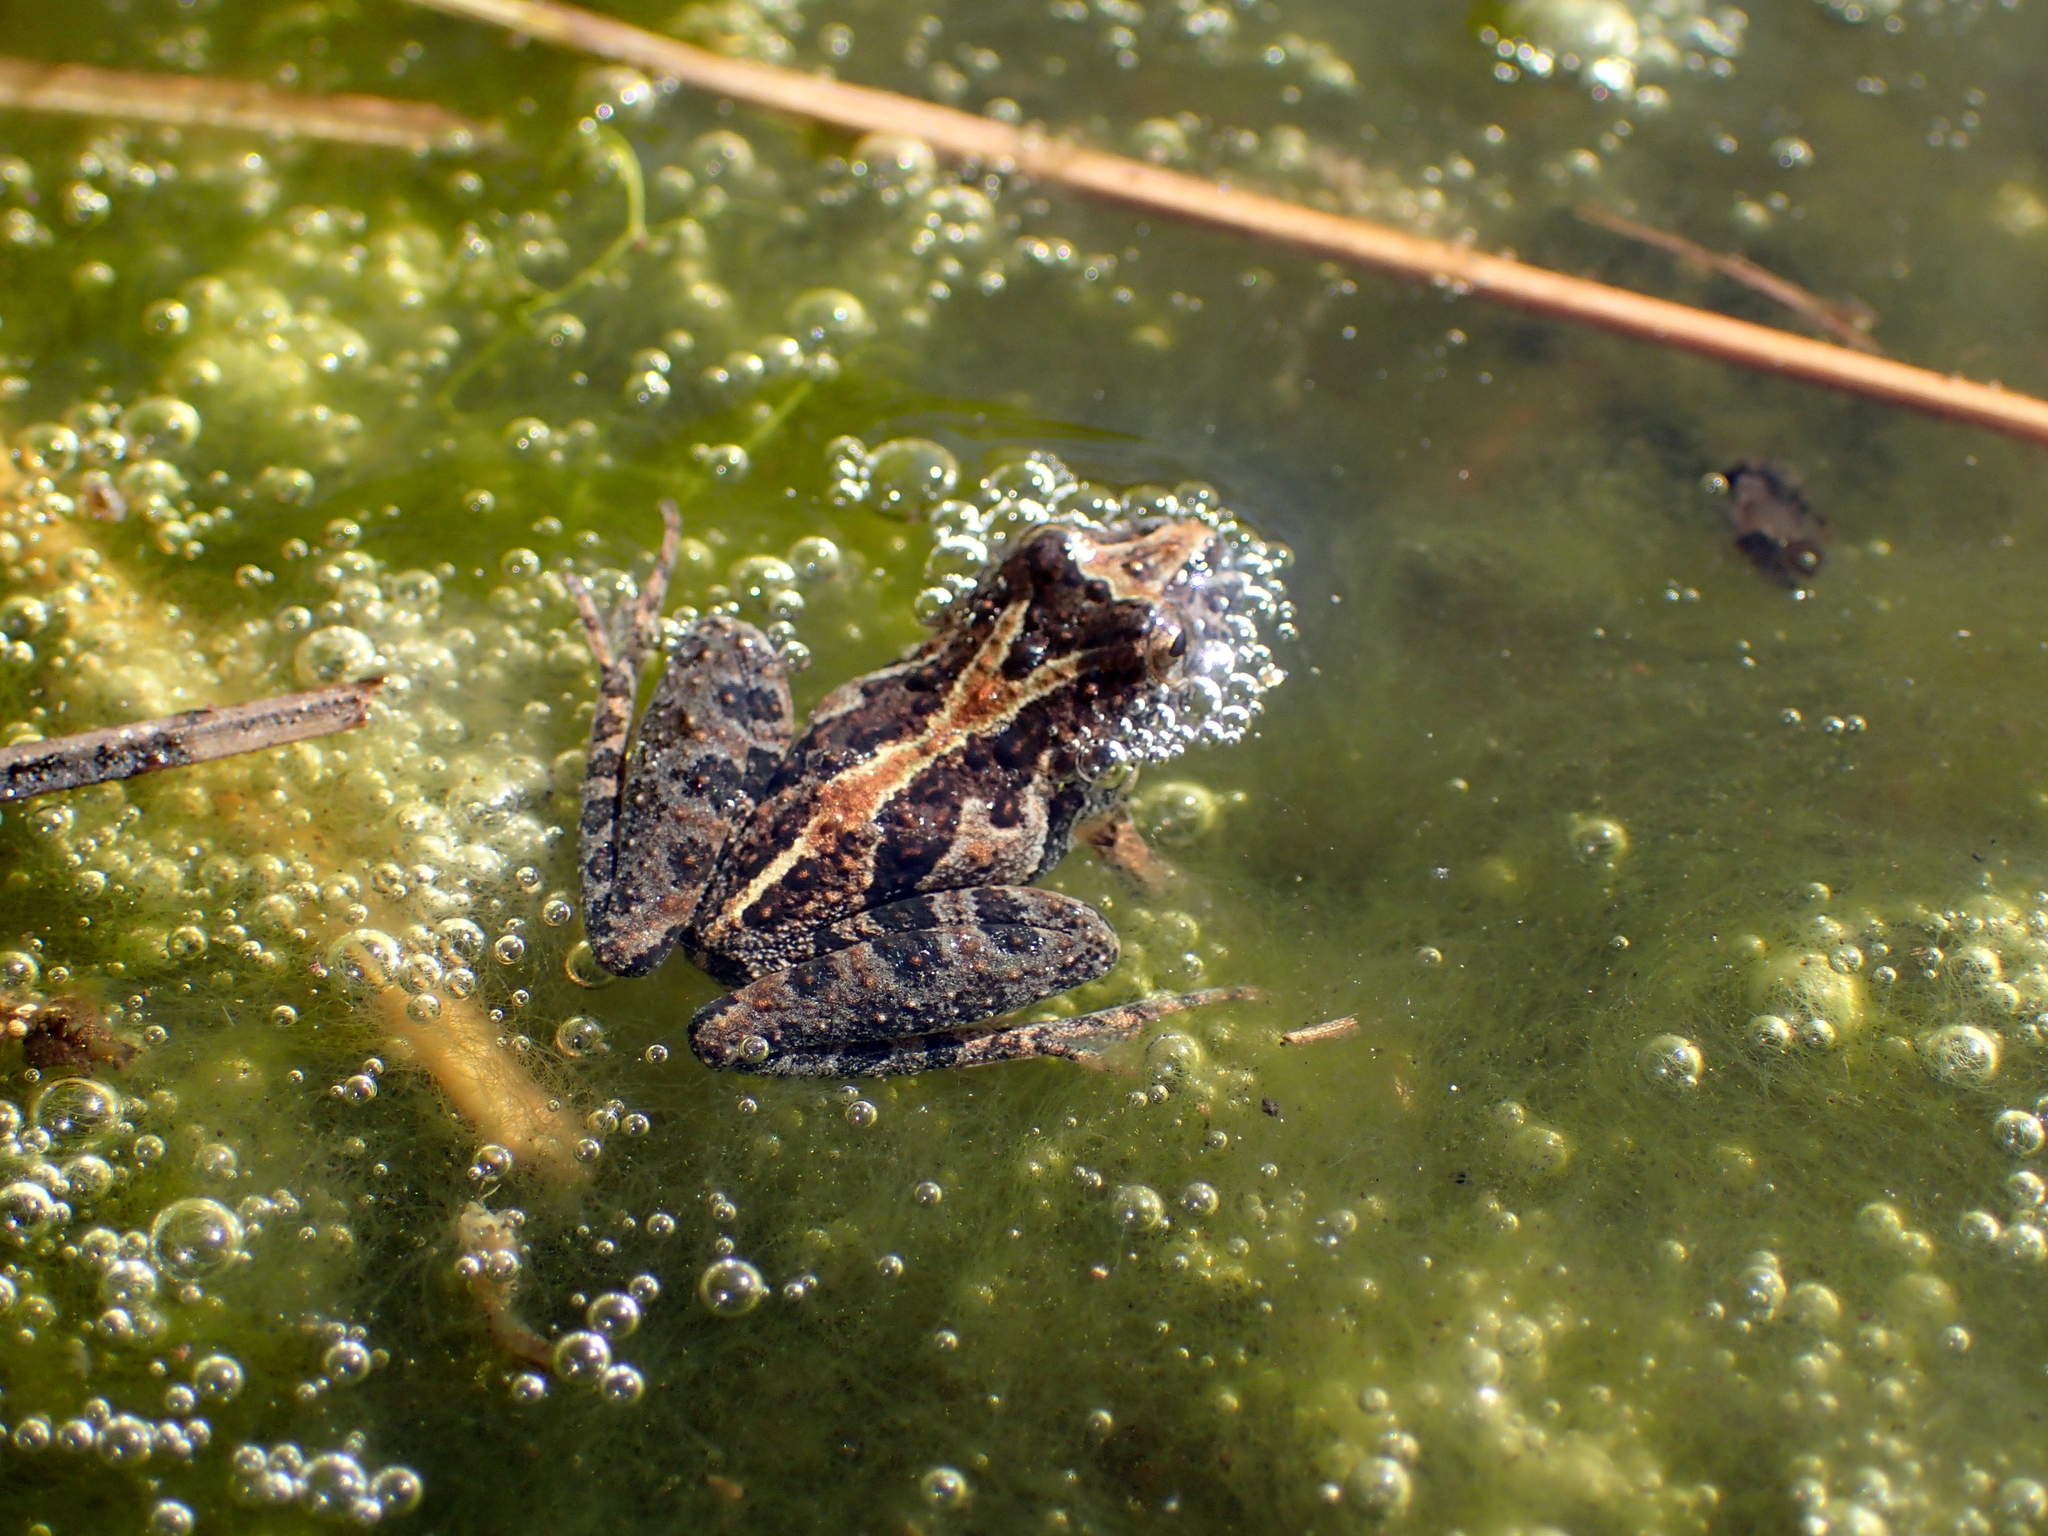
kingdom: Animalia
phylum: Chordata
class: Amphibia
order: Anura
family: Hylidae
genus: Acris
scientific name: Acris gryllus
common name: Southern cricket frog
